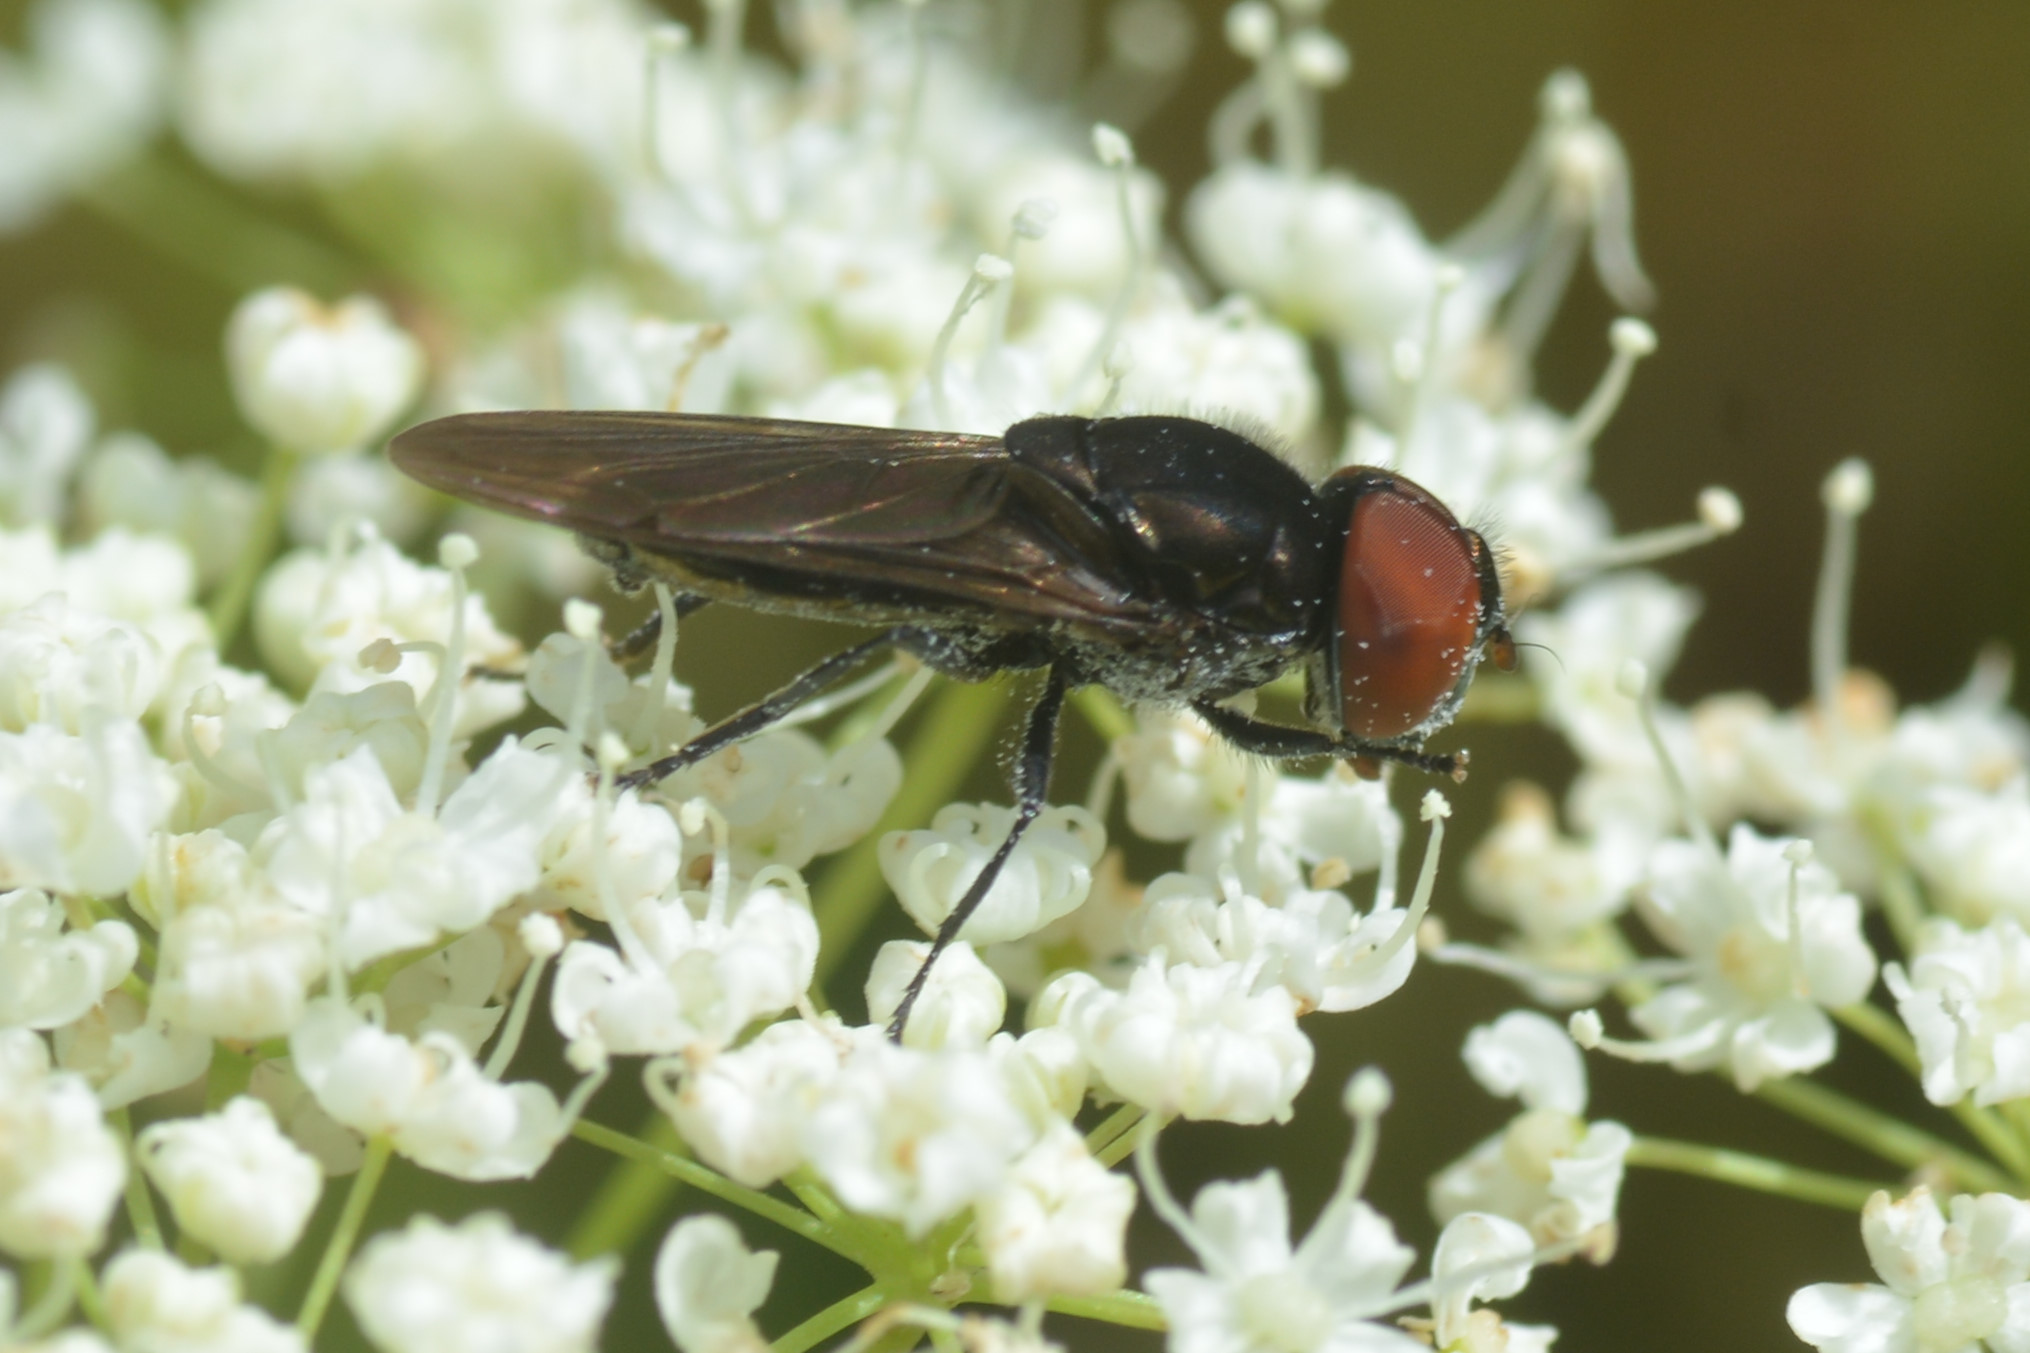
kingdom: Animalia
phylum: Arthropoda
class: Insecta
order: Diptera
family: Syrphidae
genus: Chrysogaster
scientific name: Chrysogaster solstitialis
